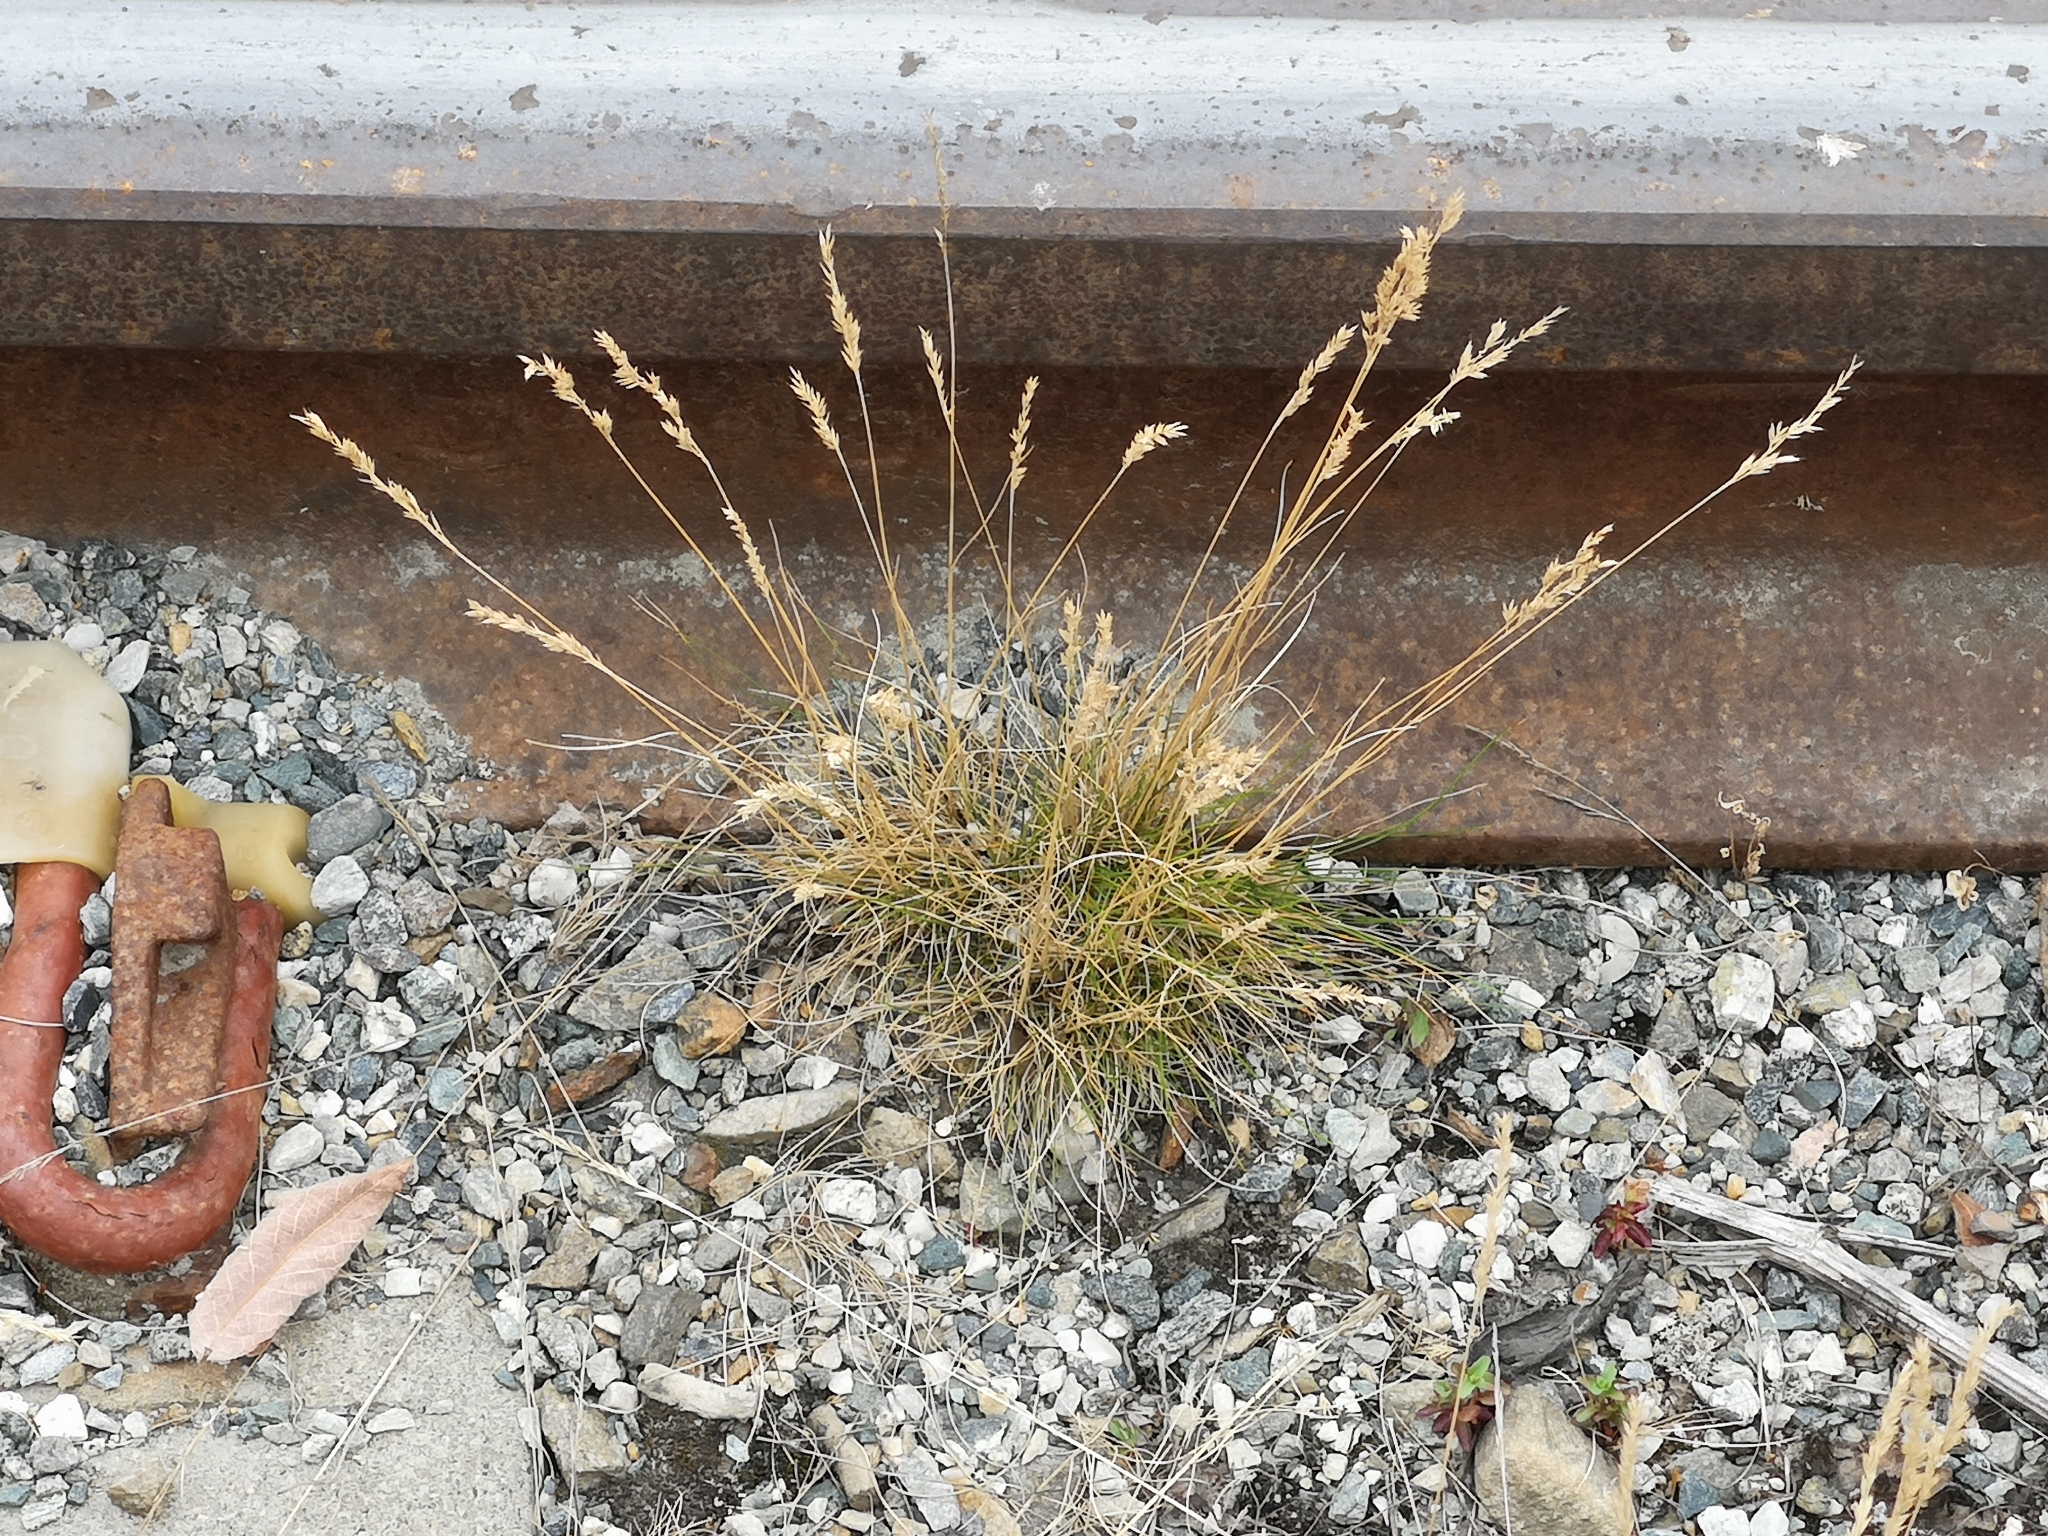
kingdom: Plantae
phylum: Tracheophyta
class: Liliopsida
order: Poales
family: Poaceae
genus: Festuca
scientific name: Festuca ovina
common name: Sheep fescue
